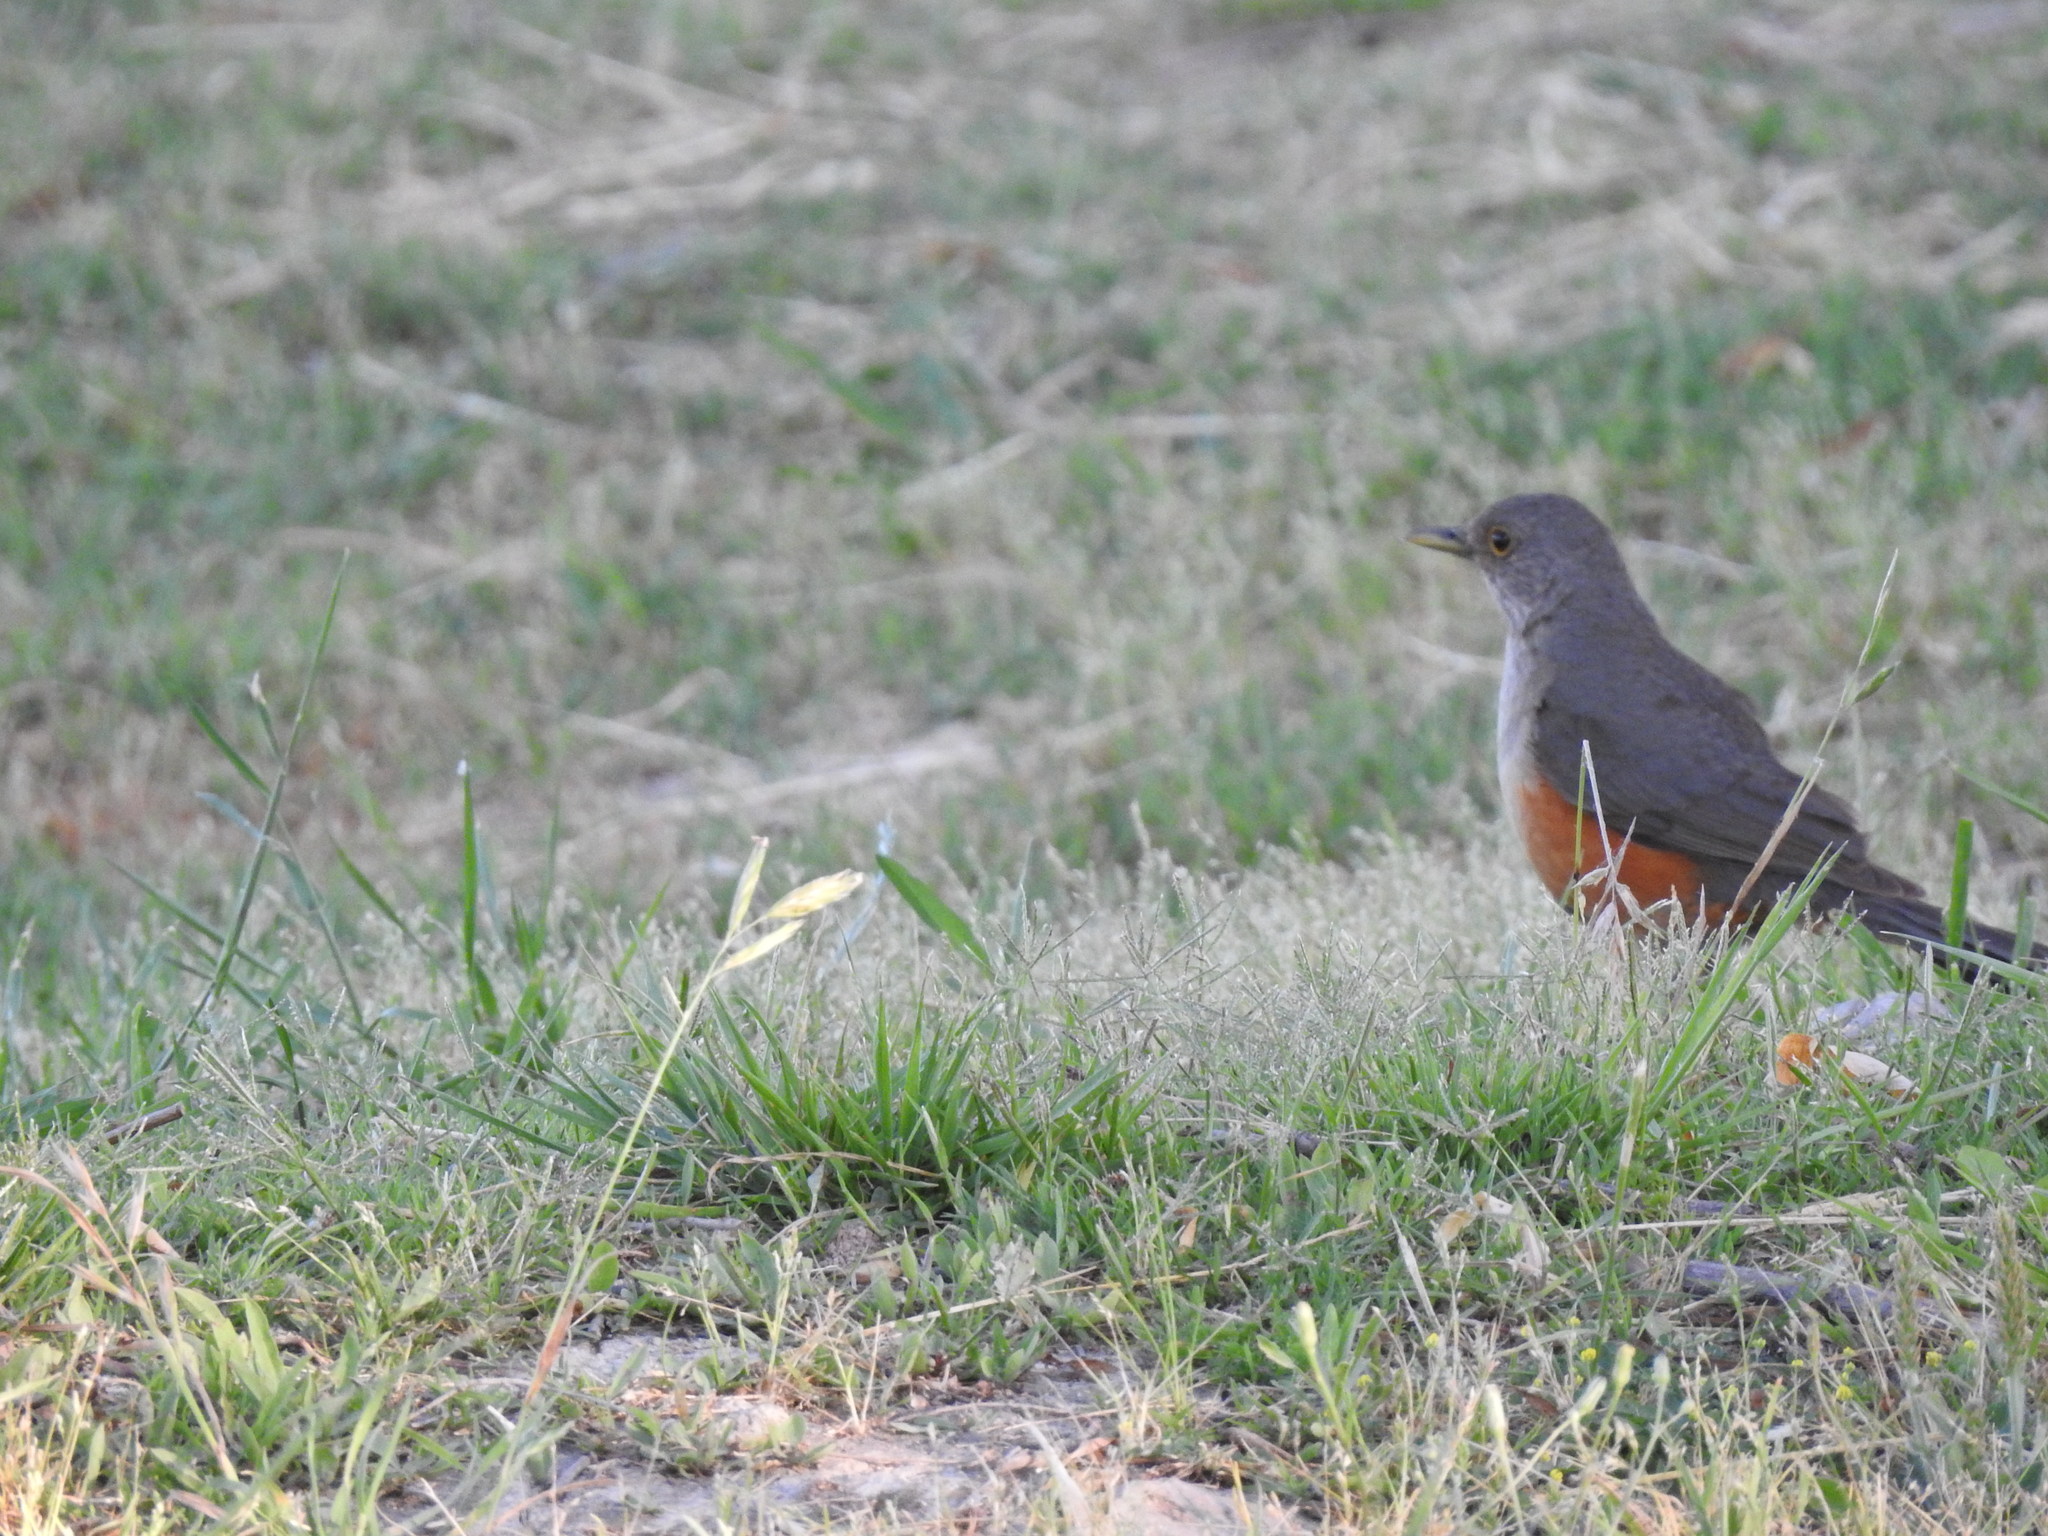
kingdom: Animalia
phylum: Chordata
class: Aves
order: Passeriformes
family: Turdidae
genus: Turdus
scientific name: Turdus rufiventris
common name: Rufous-bellied thrush
